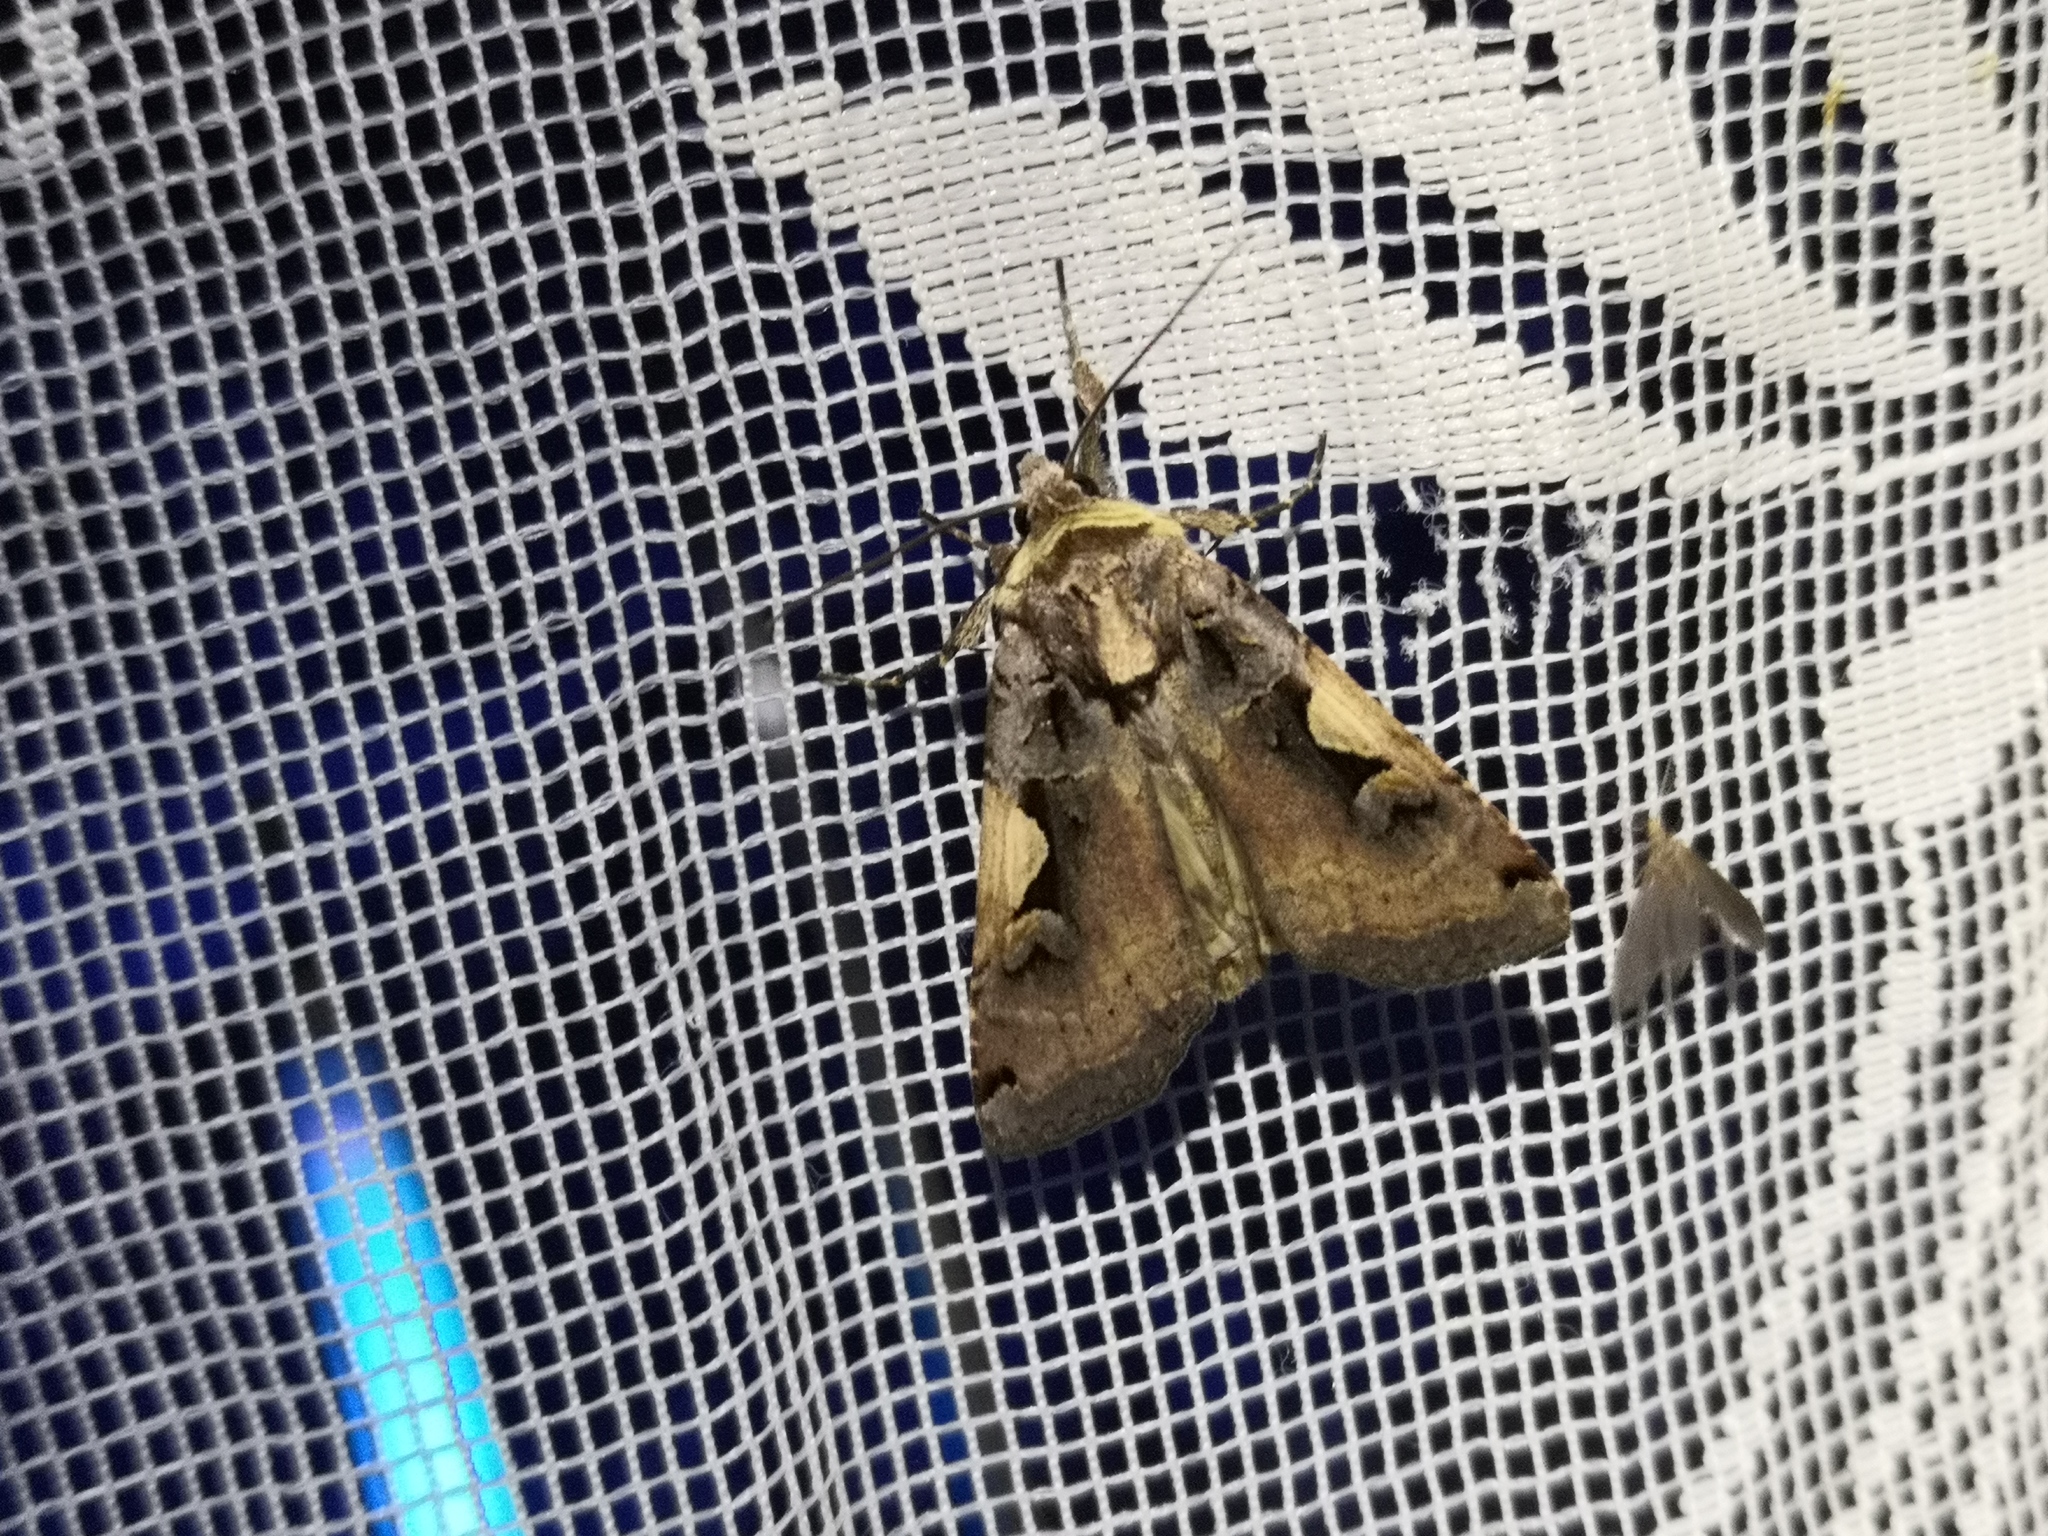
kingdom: Animalia
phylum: Arthropoda
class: Insecta
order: Lepidoptera
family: Noctuidae
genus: Xestia
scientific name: Xestia c-nigrum
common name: Setaceous hebrew character
